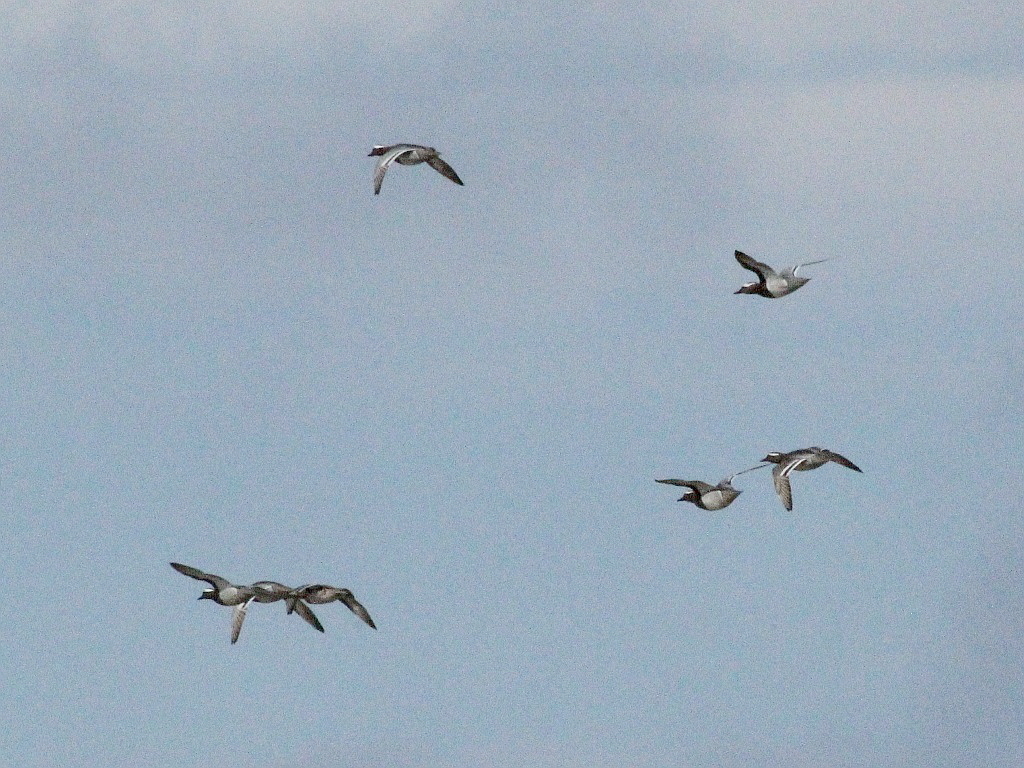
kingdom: Animalia
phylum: Chordata
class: Aves
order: Anseriformes
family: Anatidae
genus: Spatula
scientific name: Spatula querquedula
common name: Garganey
